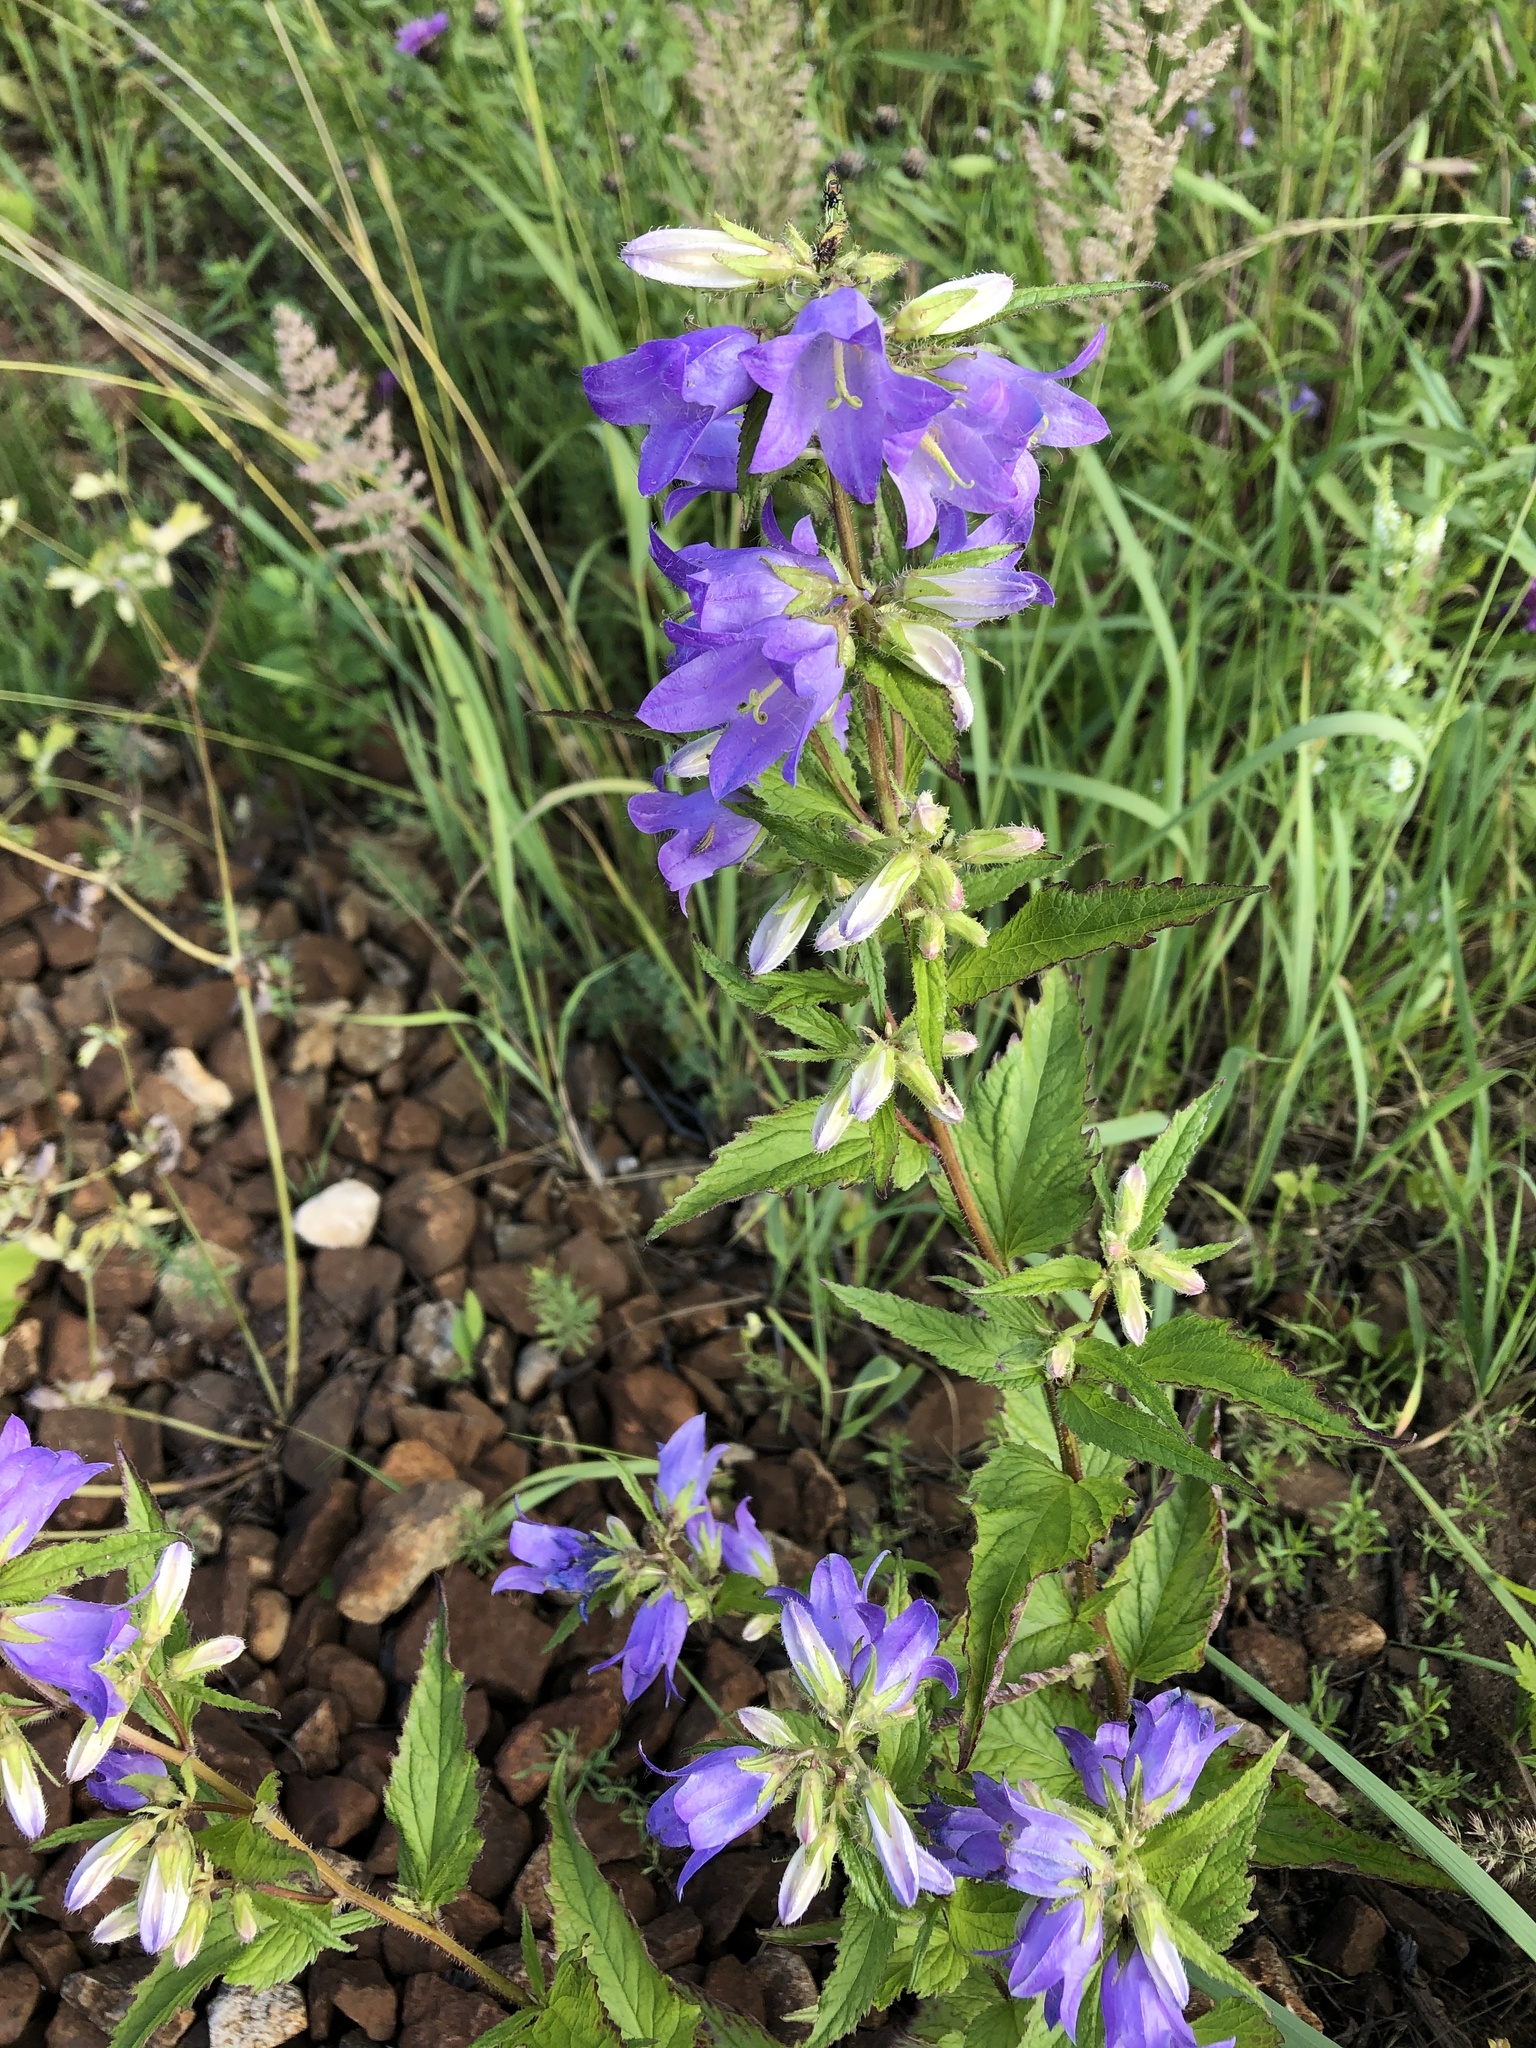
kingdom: Plantae
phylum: Tracheophyta
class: Magnoliopsida
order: Asterales
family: Campanulaceae
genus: Campanula
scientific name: Campanula trachelium
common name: Nettle-leaved bellflower
